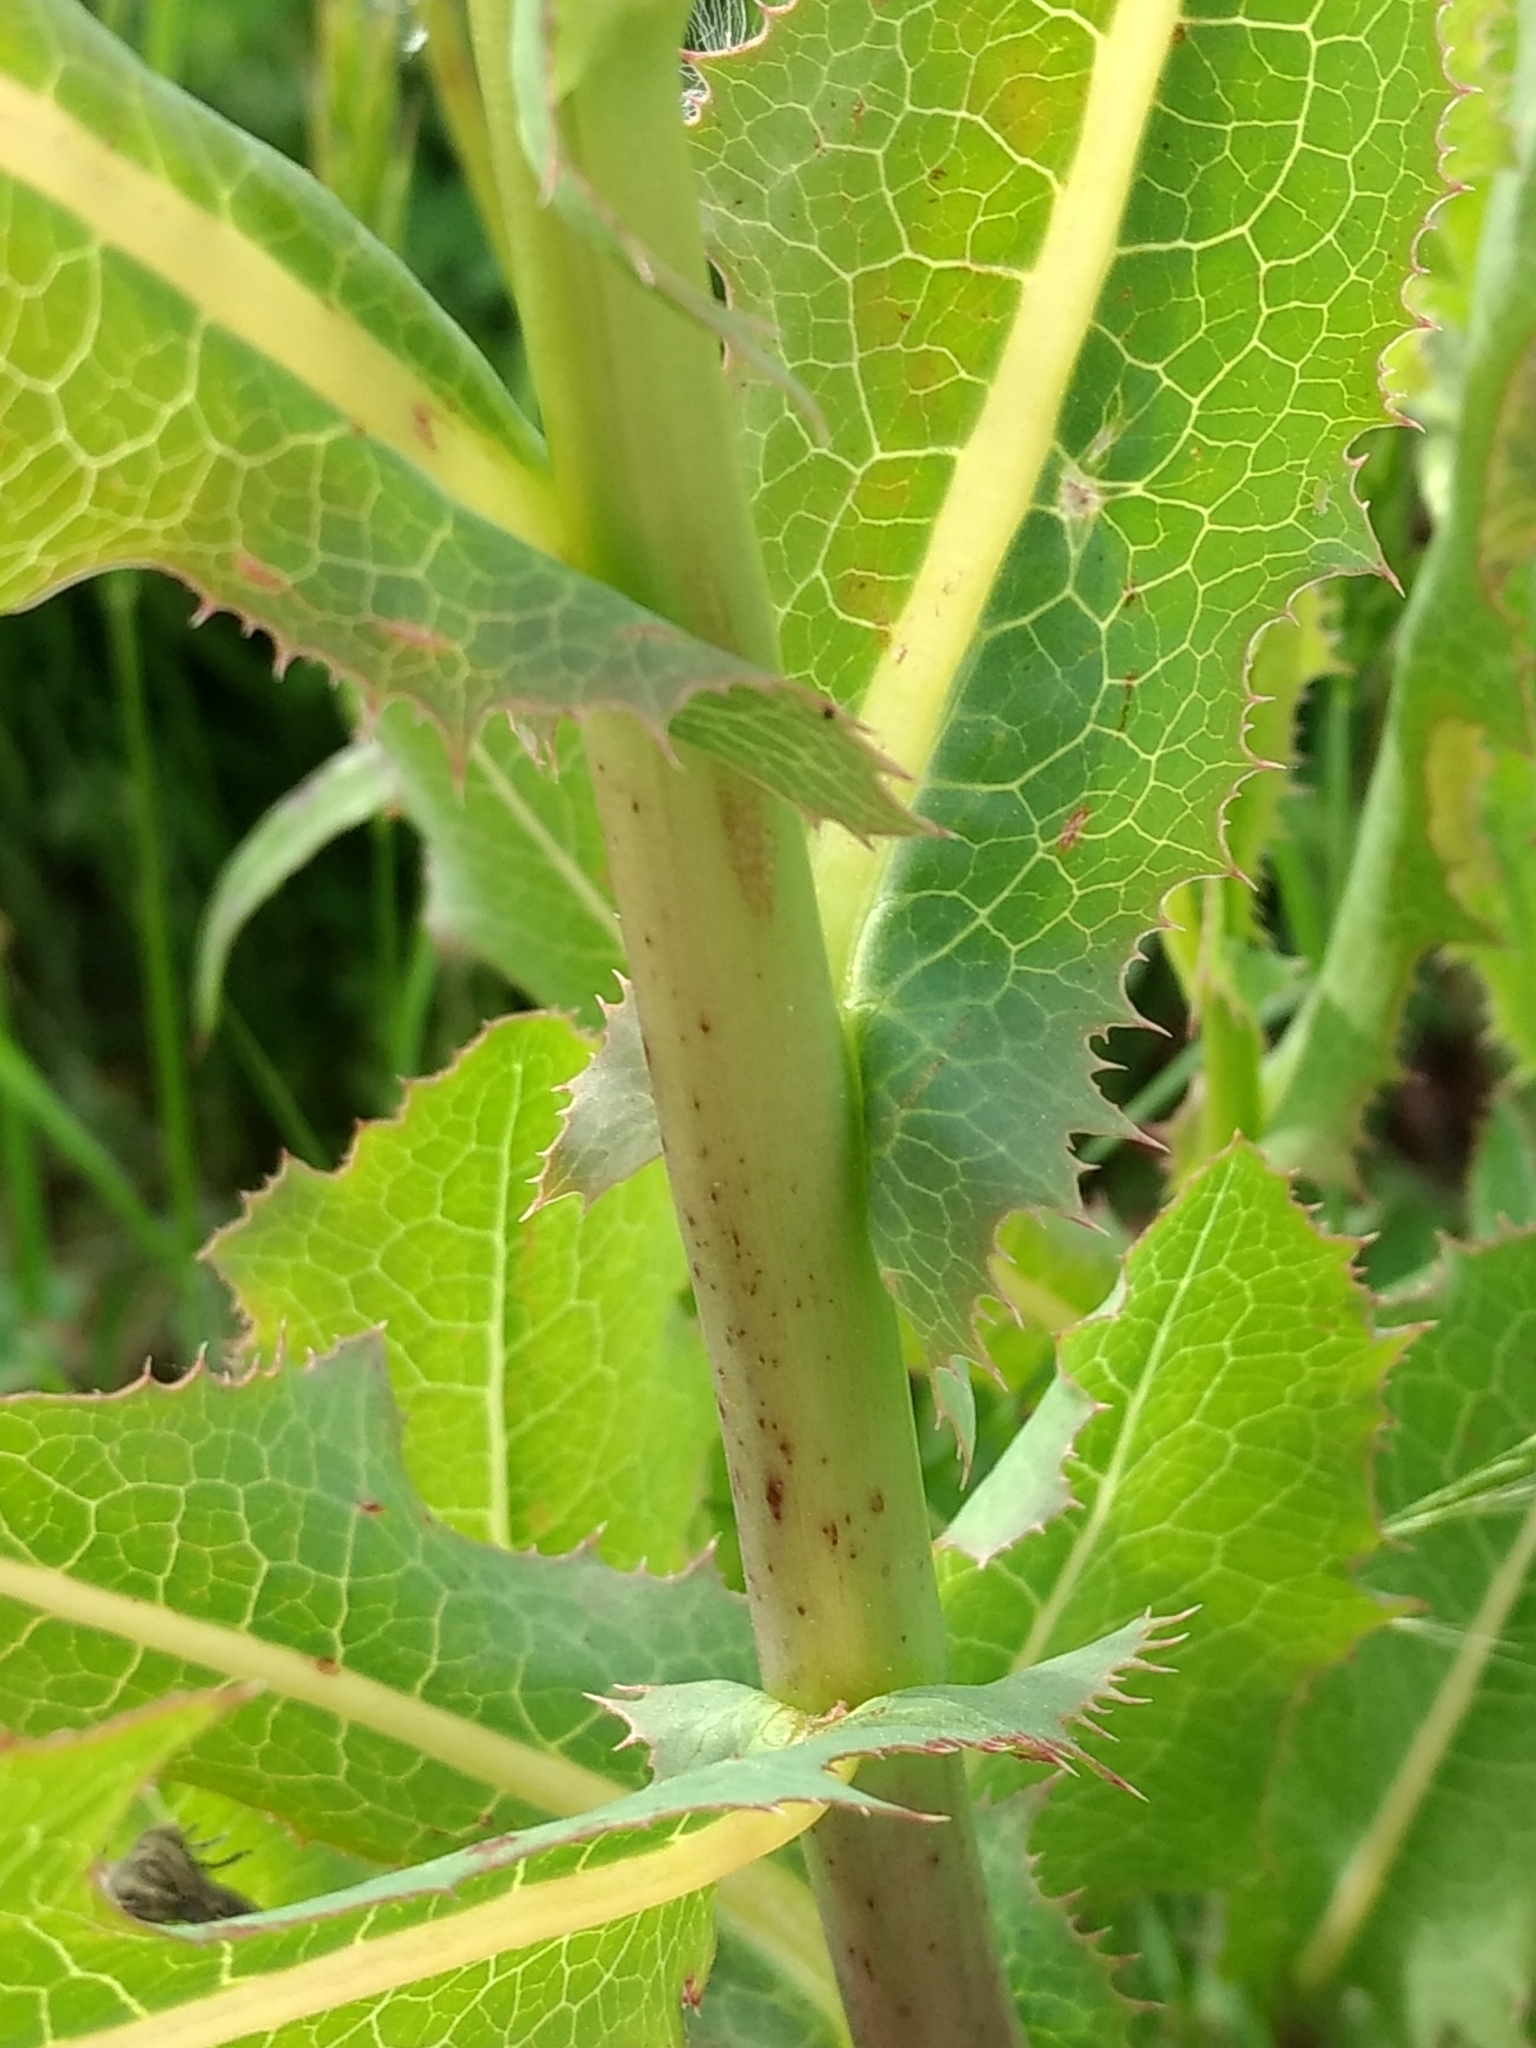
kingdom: Plantae
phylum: Tracheophyta
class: Magnoliopsida
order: Asterales
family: Asteraceae
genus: Lactuca
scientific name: Lactuca serriola
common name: Prickly lettuce
